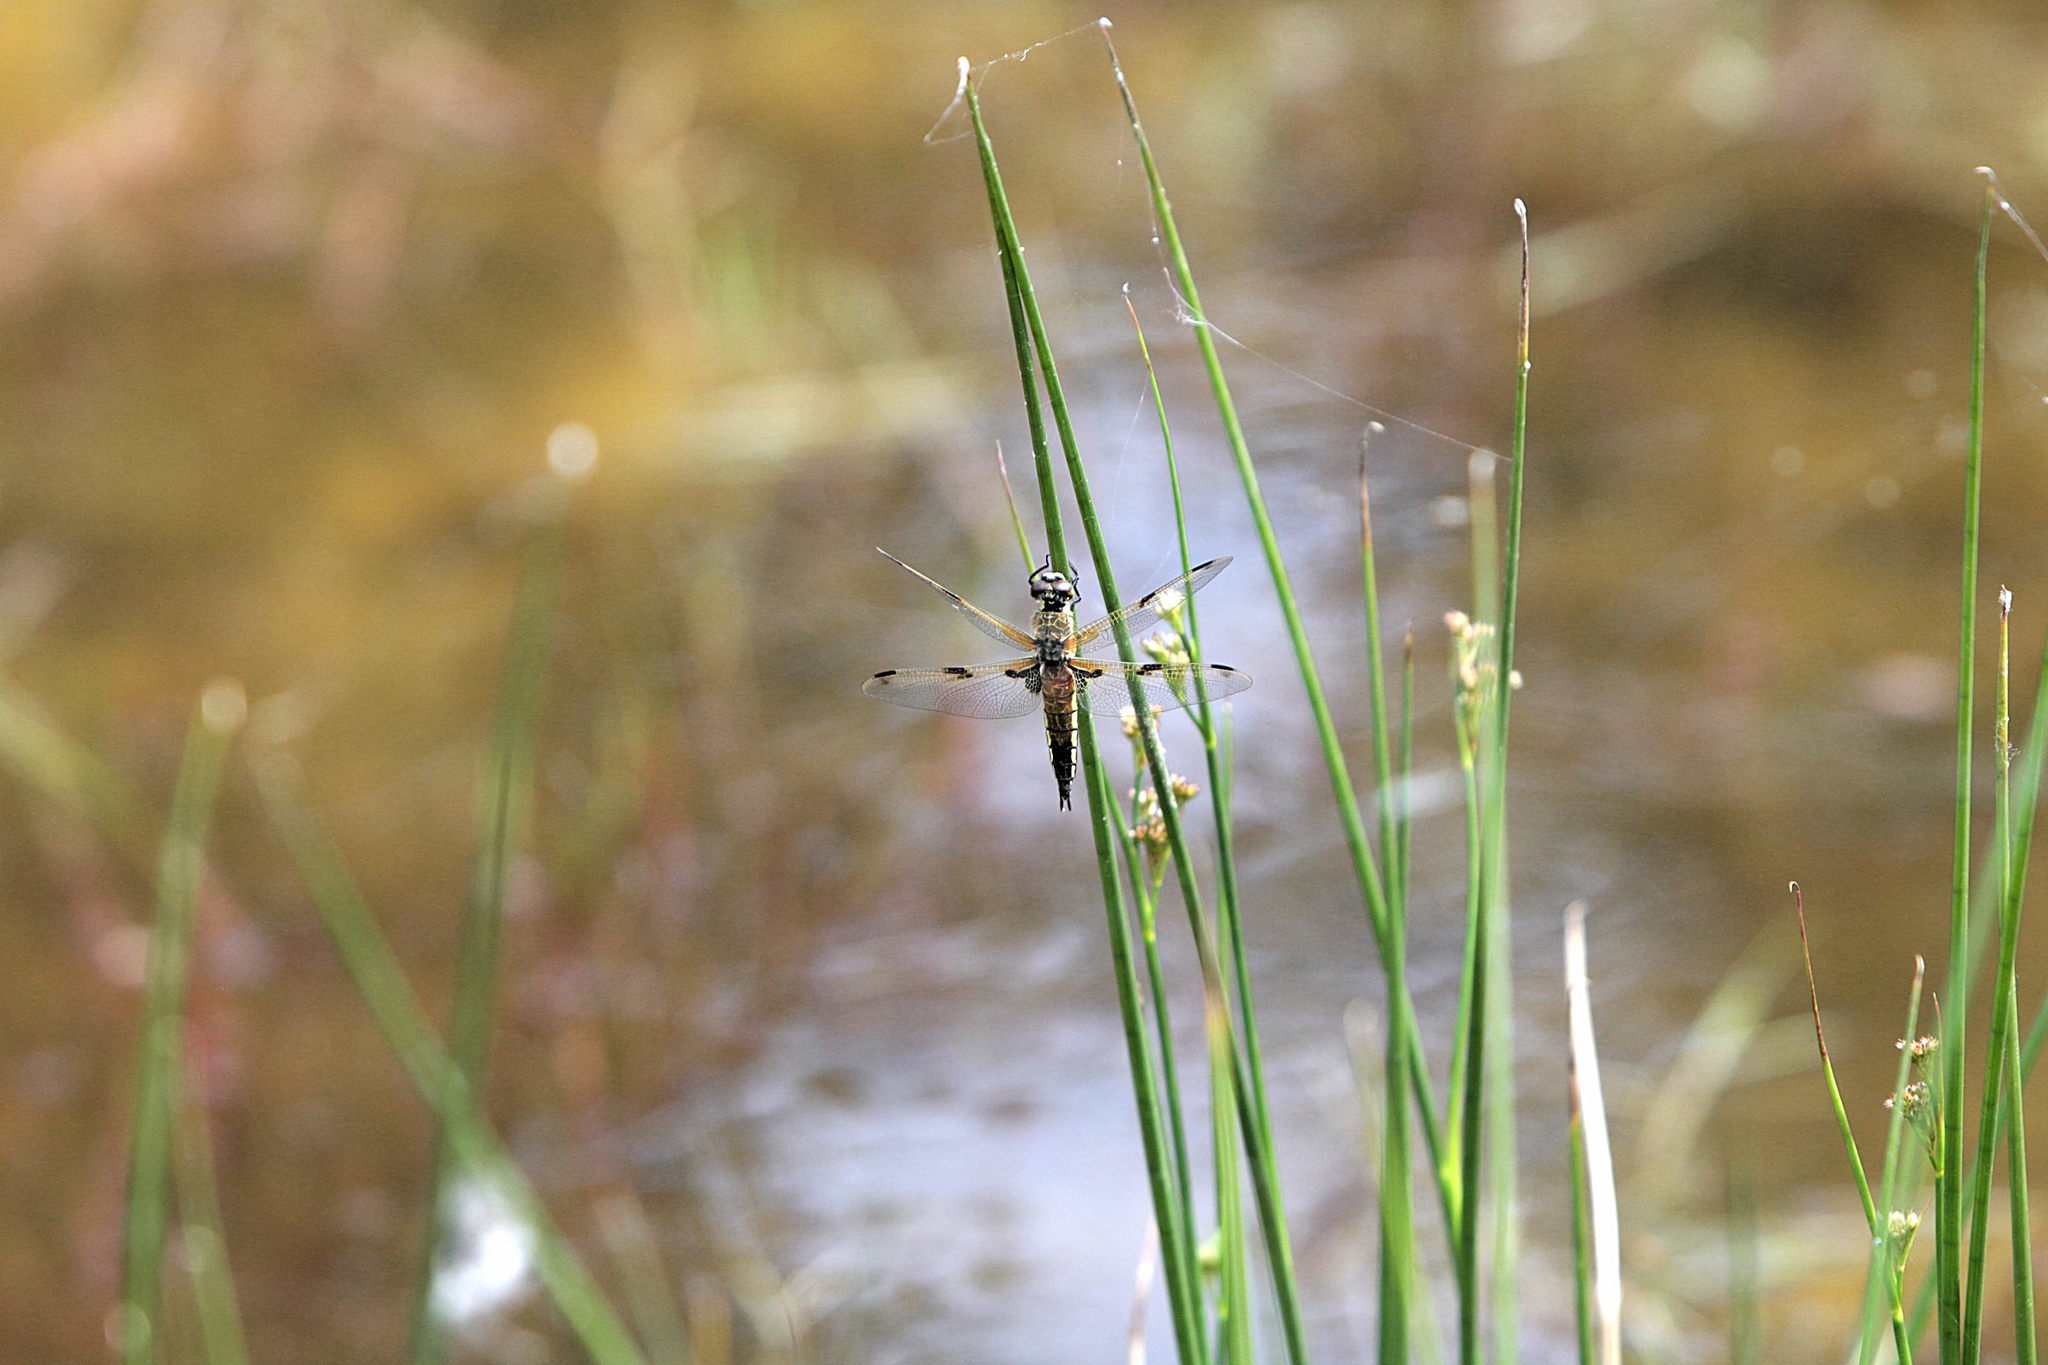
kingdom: Animalia
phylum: Arthropoda
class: Insecta
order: Odonata
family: Libellulidae
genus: Libellula
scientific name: Libellula quadrimaculata
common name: Four-spotted chaser
